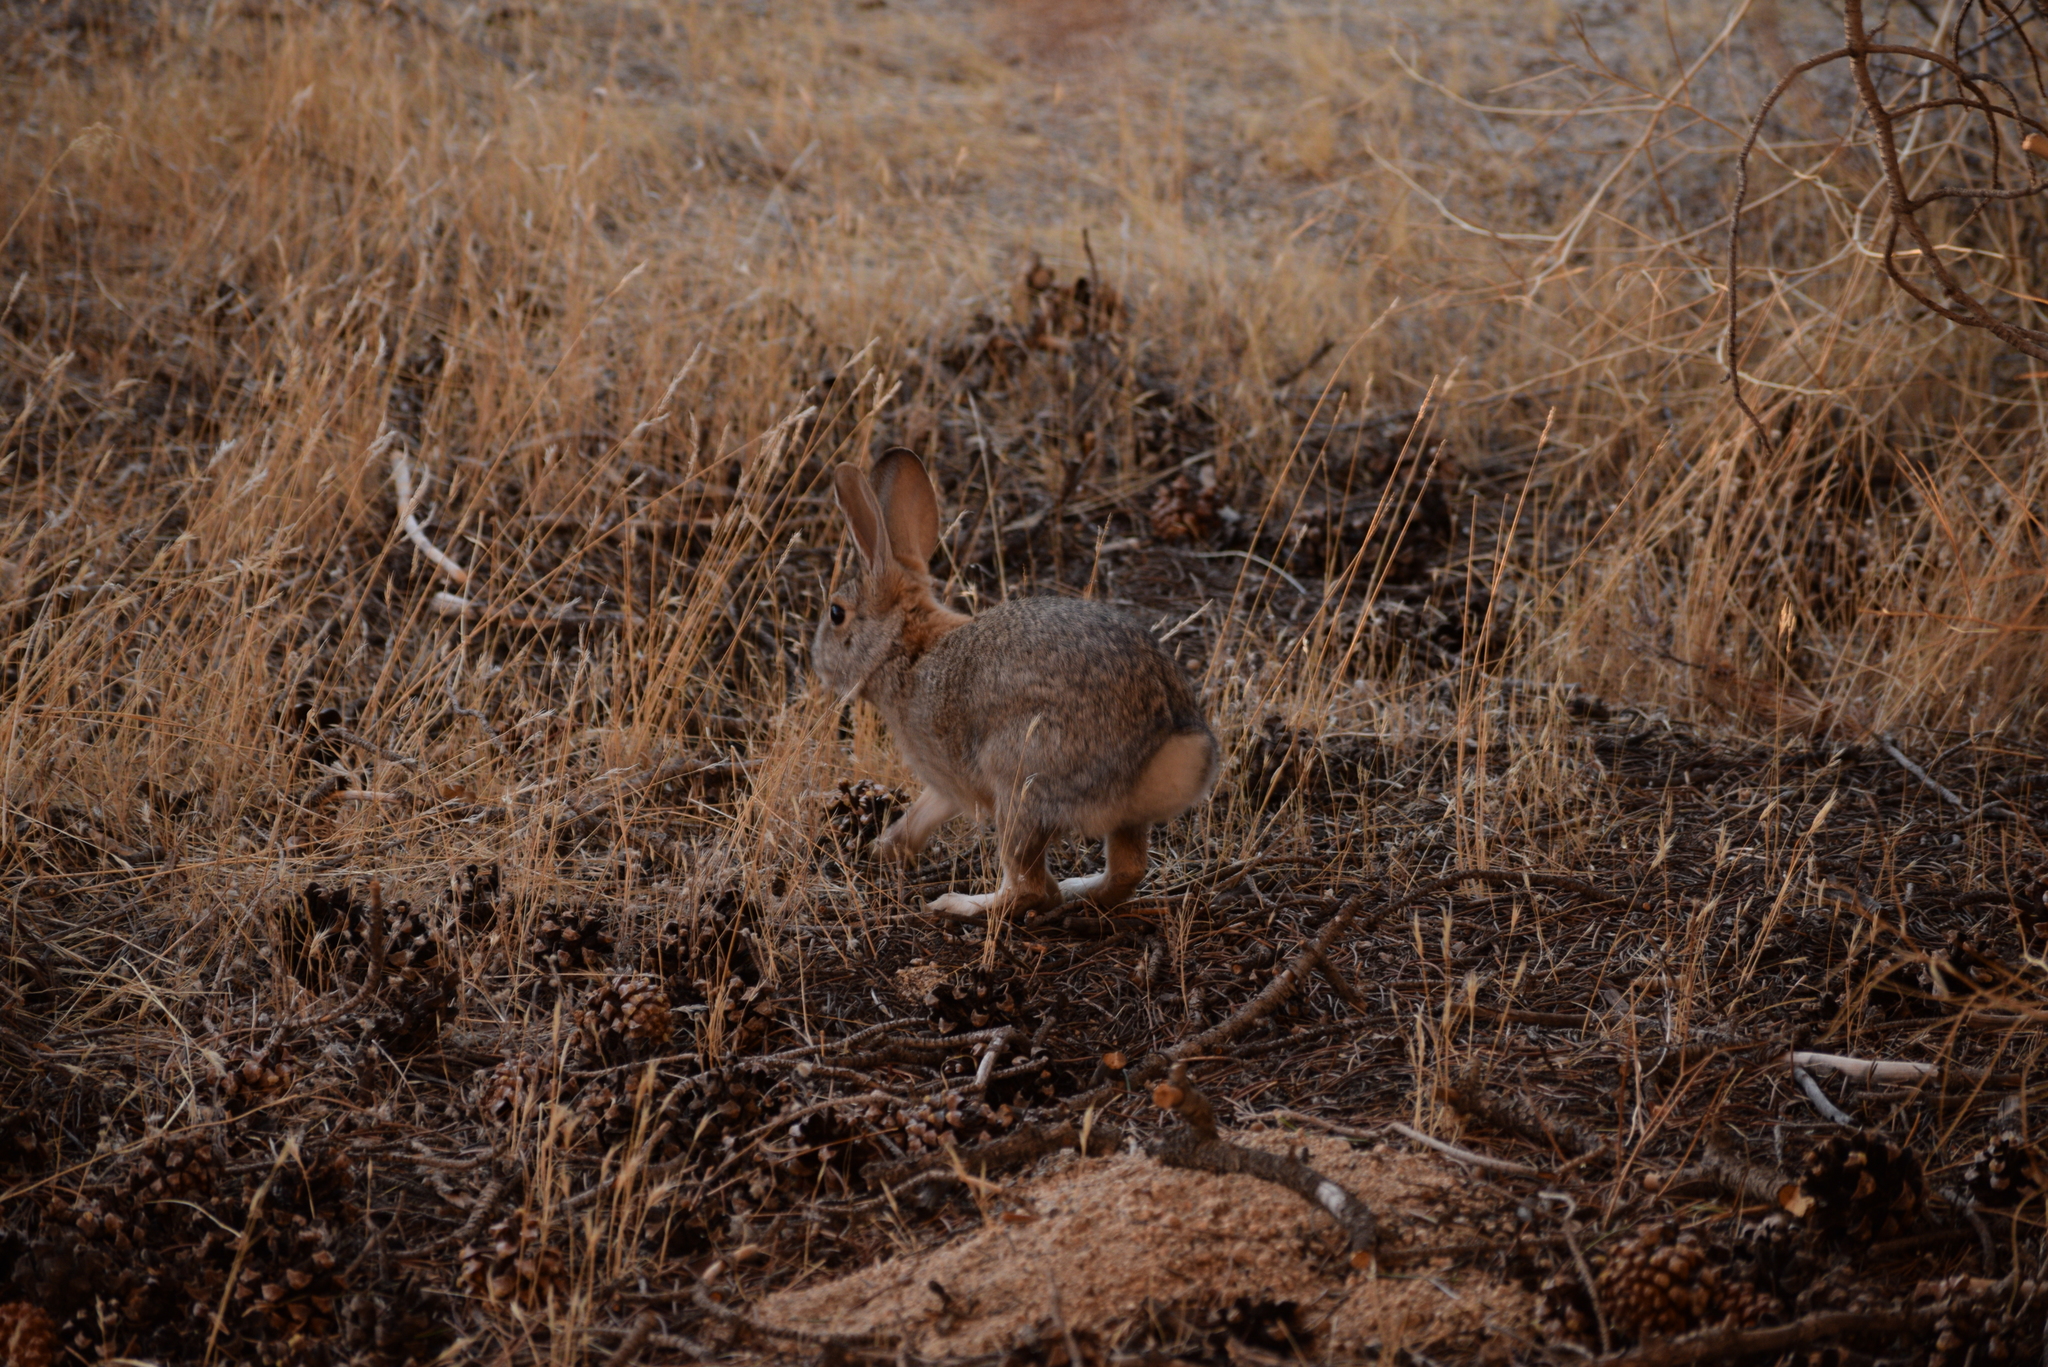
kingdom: Animalia
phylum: Chordata
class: Mammalia
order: Lagomorpha
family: Leporidae
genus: Sylvilagus
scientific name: Sylvilagus audubonii
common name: Desert cottontail
